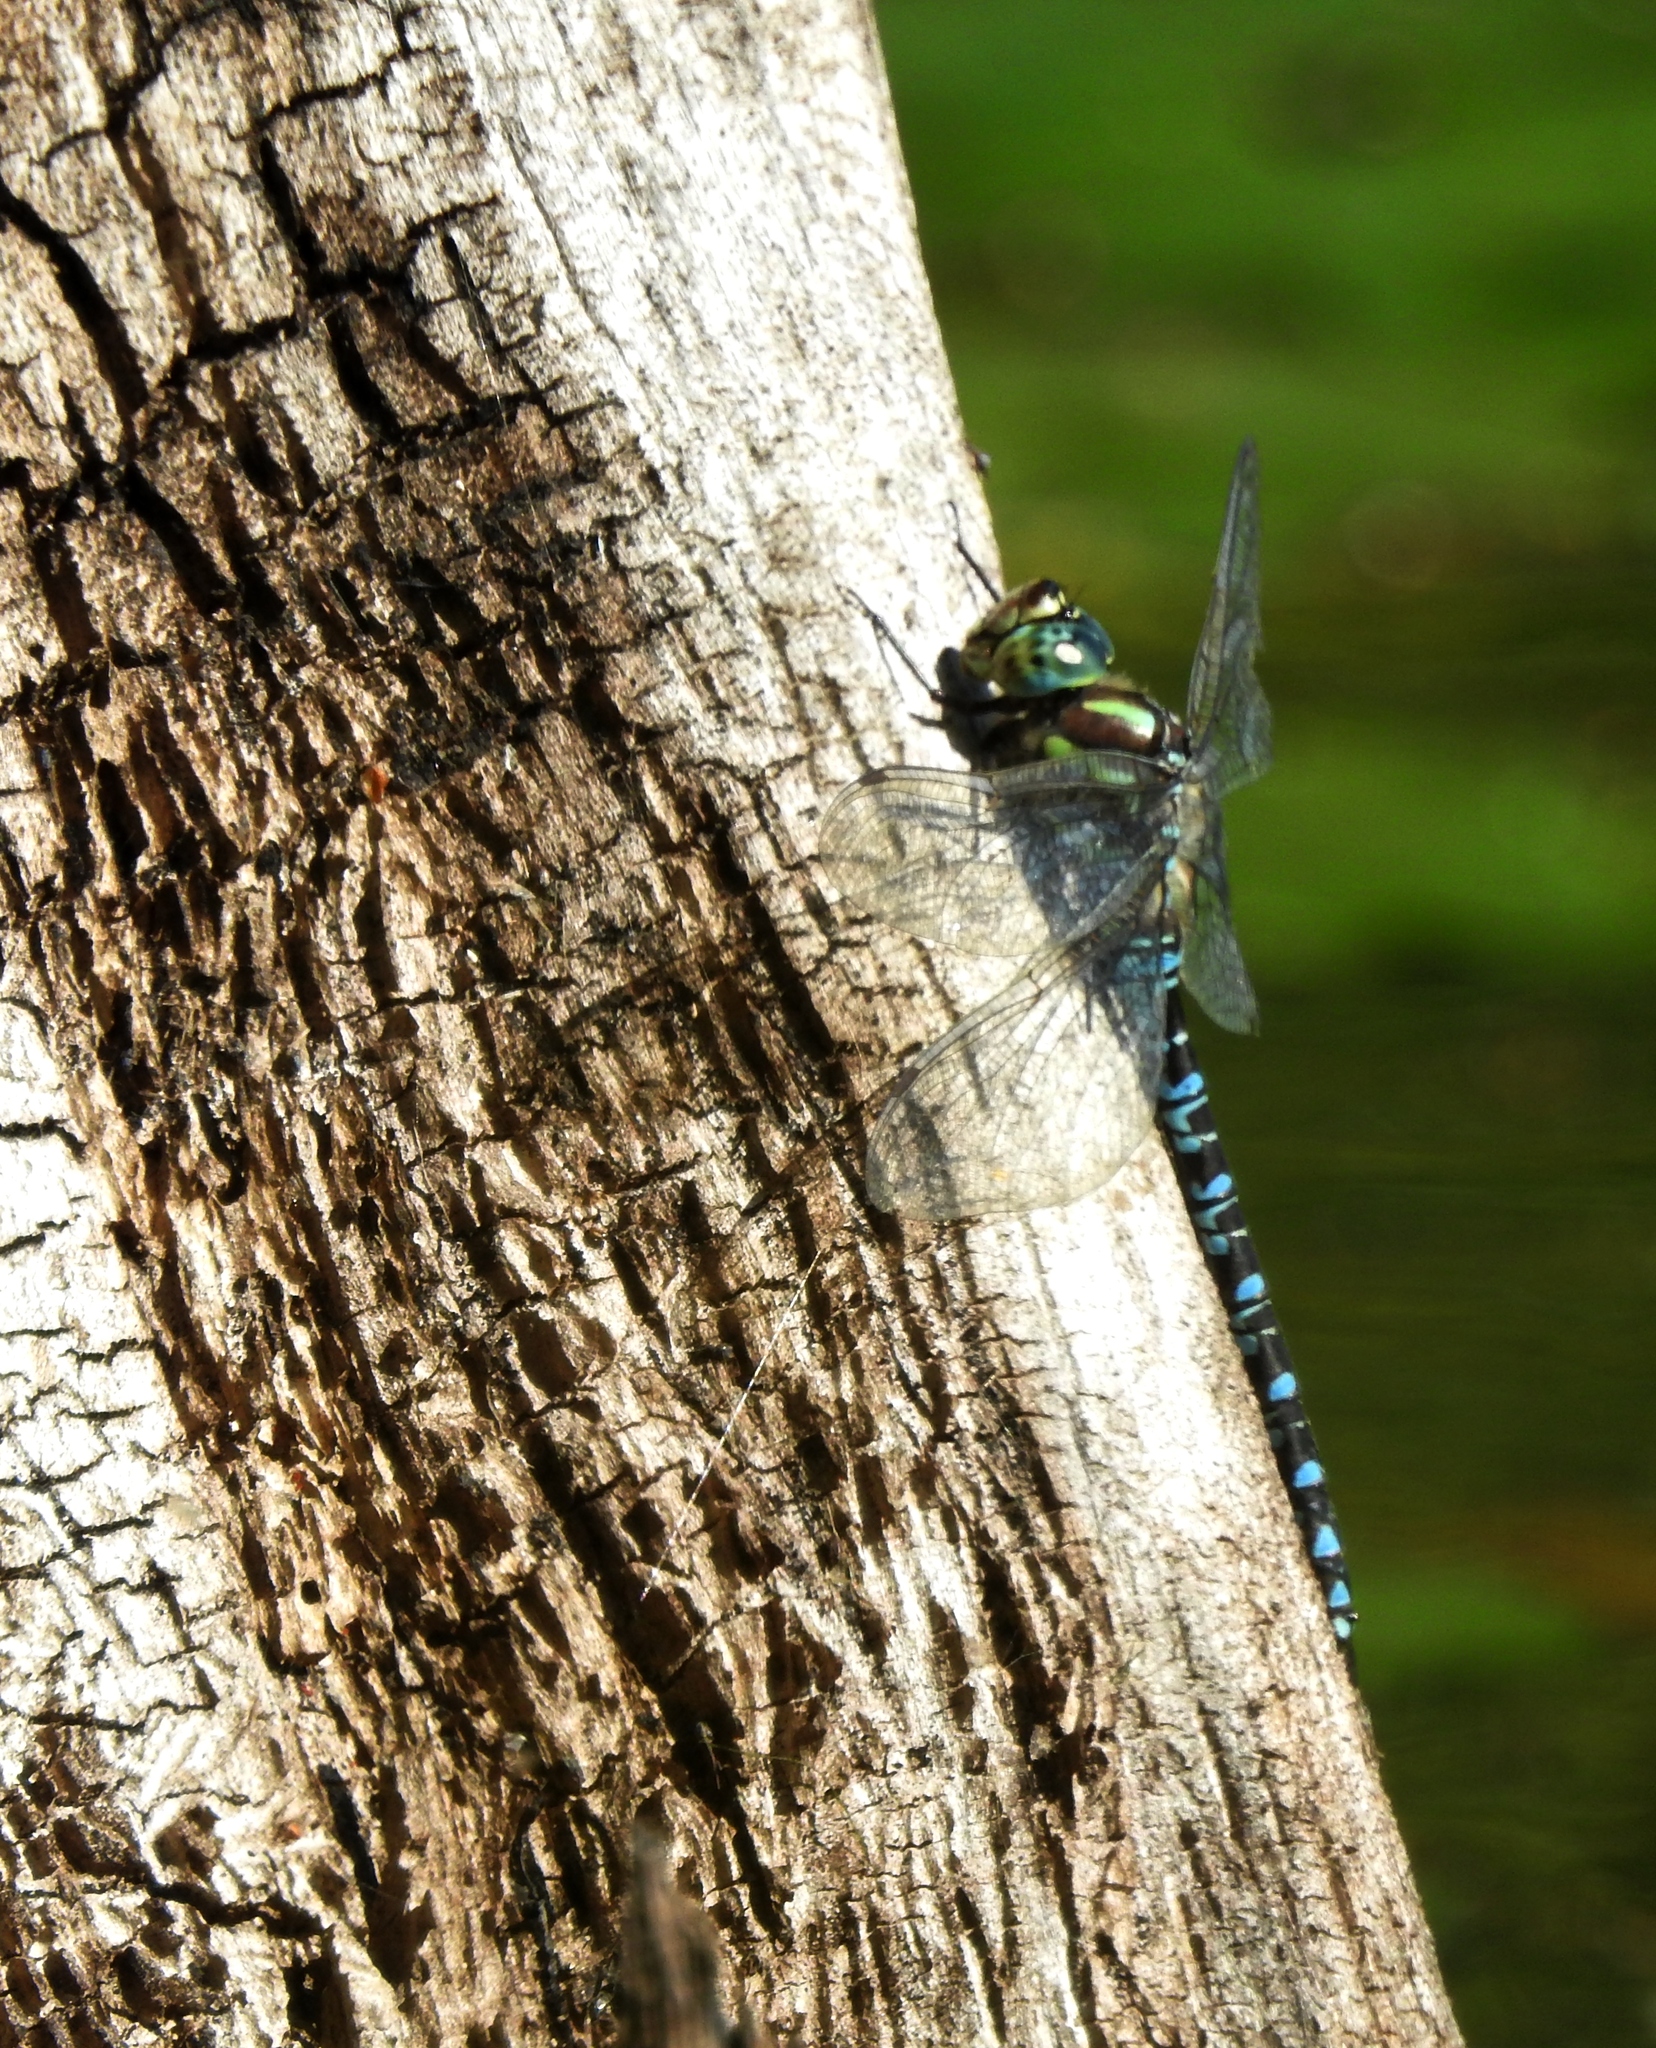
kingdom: Animalia
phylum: Arthropoda
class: Insecta
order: Odonata
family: Aeshnidae
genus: Aeshna
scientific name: Aeshna crenata
